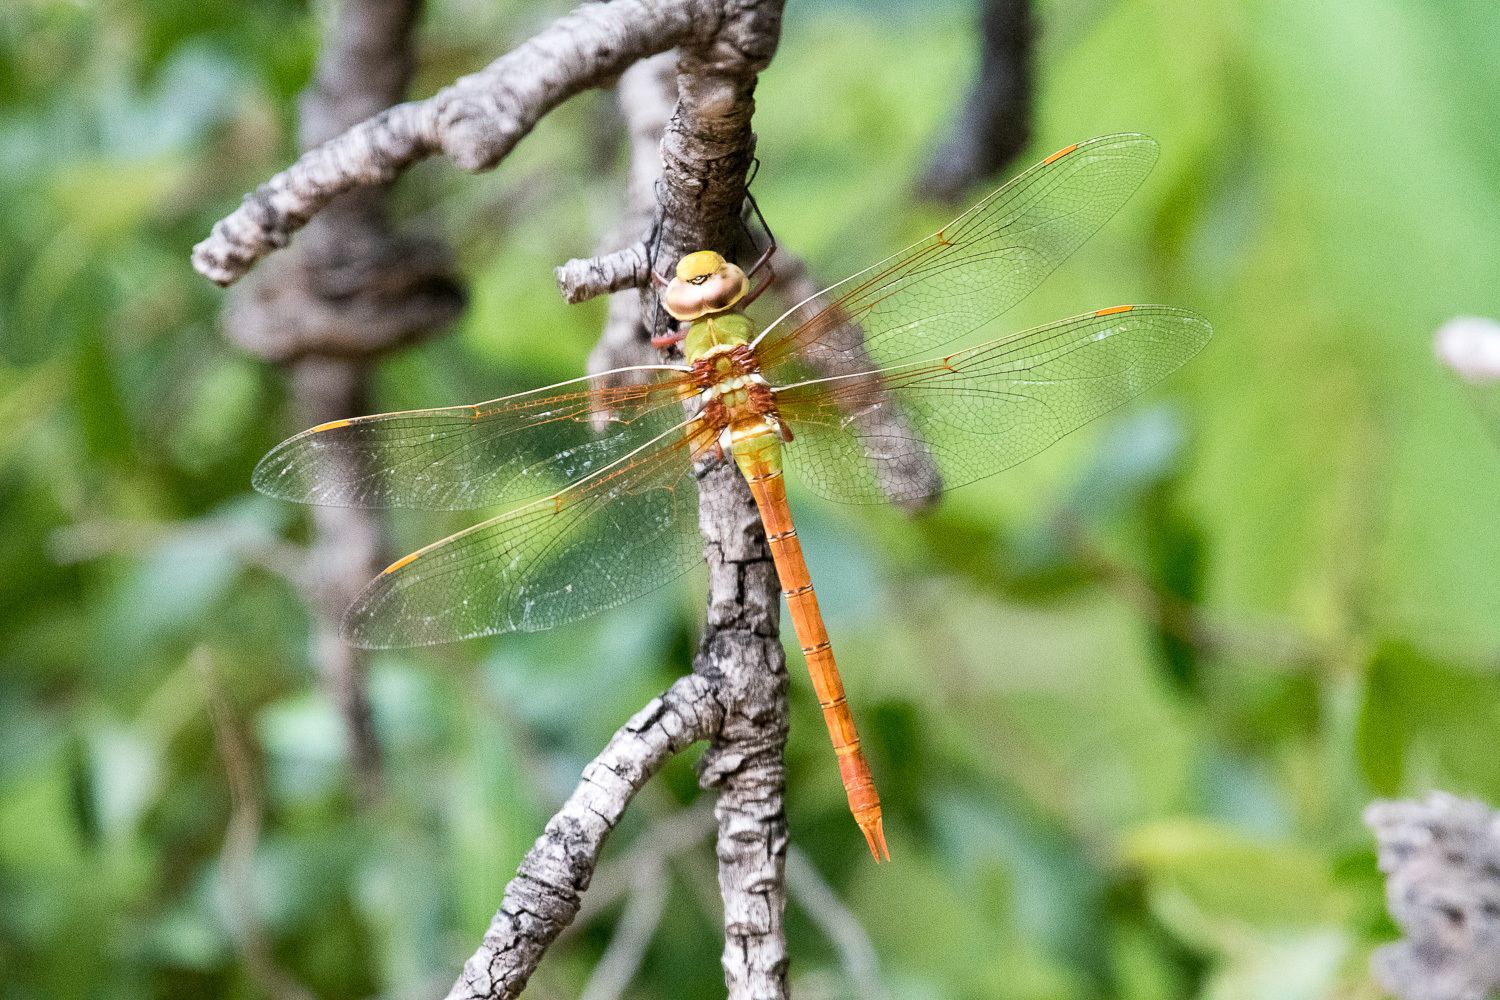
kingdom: Animalia
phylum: Arthropoda
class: Insecta
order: Odonata
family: Aeshnidae
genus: Anax
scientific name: Anax speratus
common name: Orange emperor
